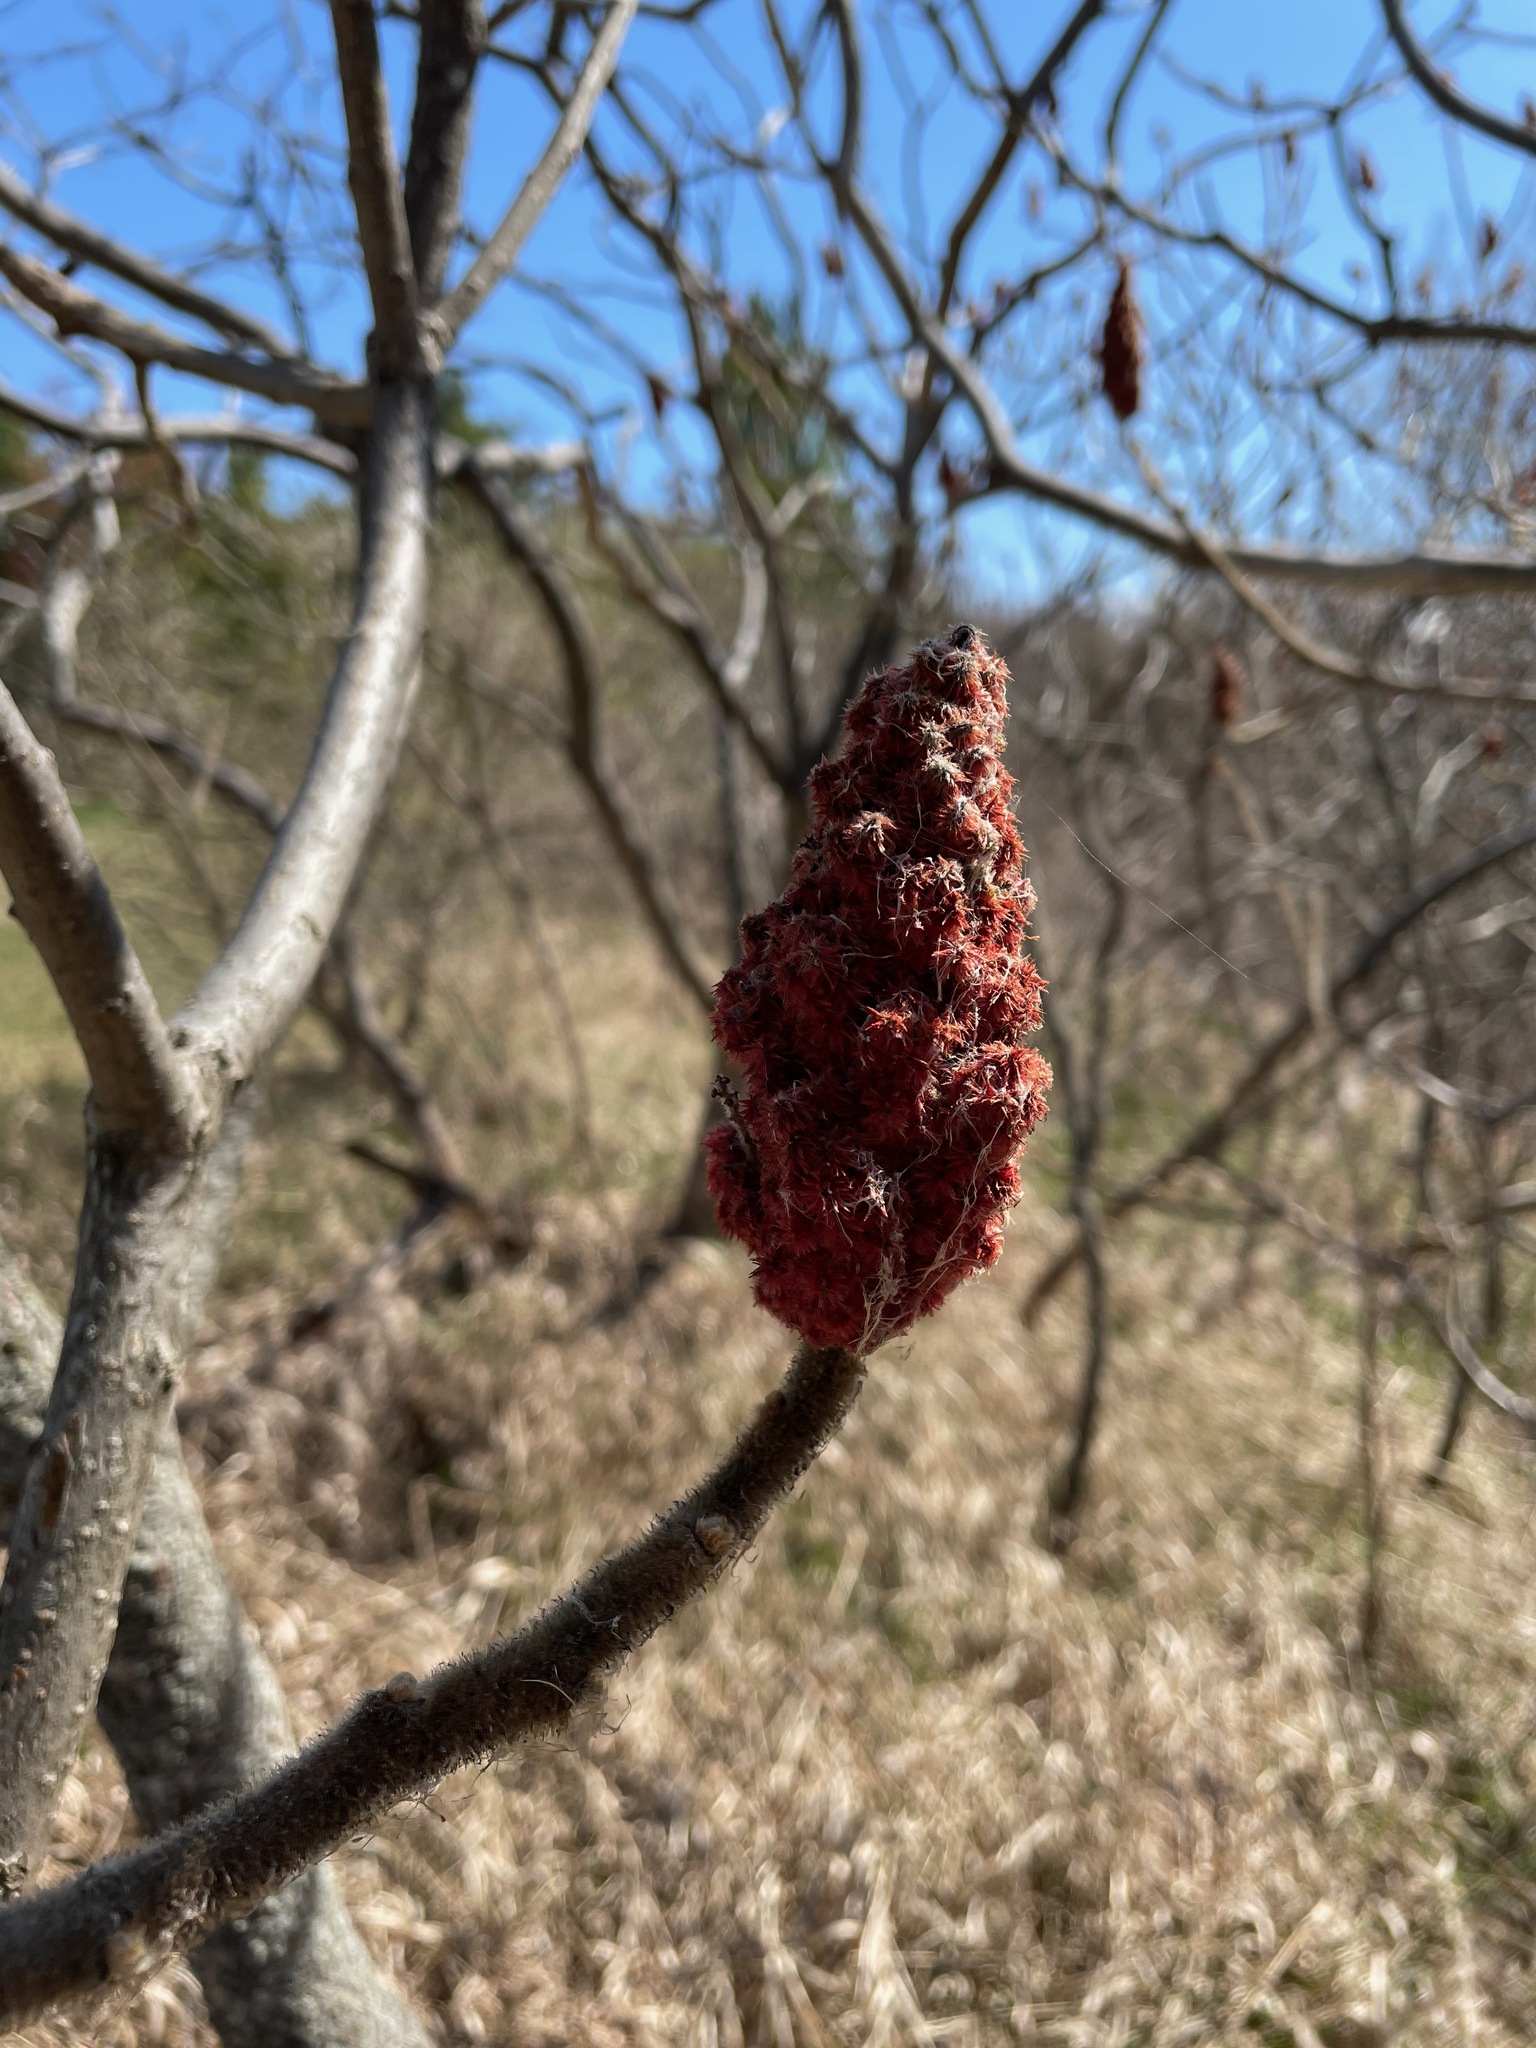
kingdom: Plantae
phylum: Tracheophyta
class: Magnoliopsida
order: Sapindales
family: Anacardiaceae
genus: Rhus
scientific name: Rhus typhina
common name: Staghorn sumac
